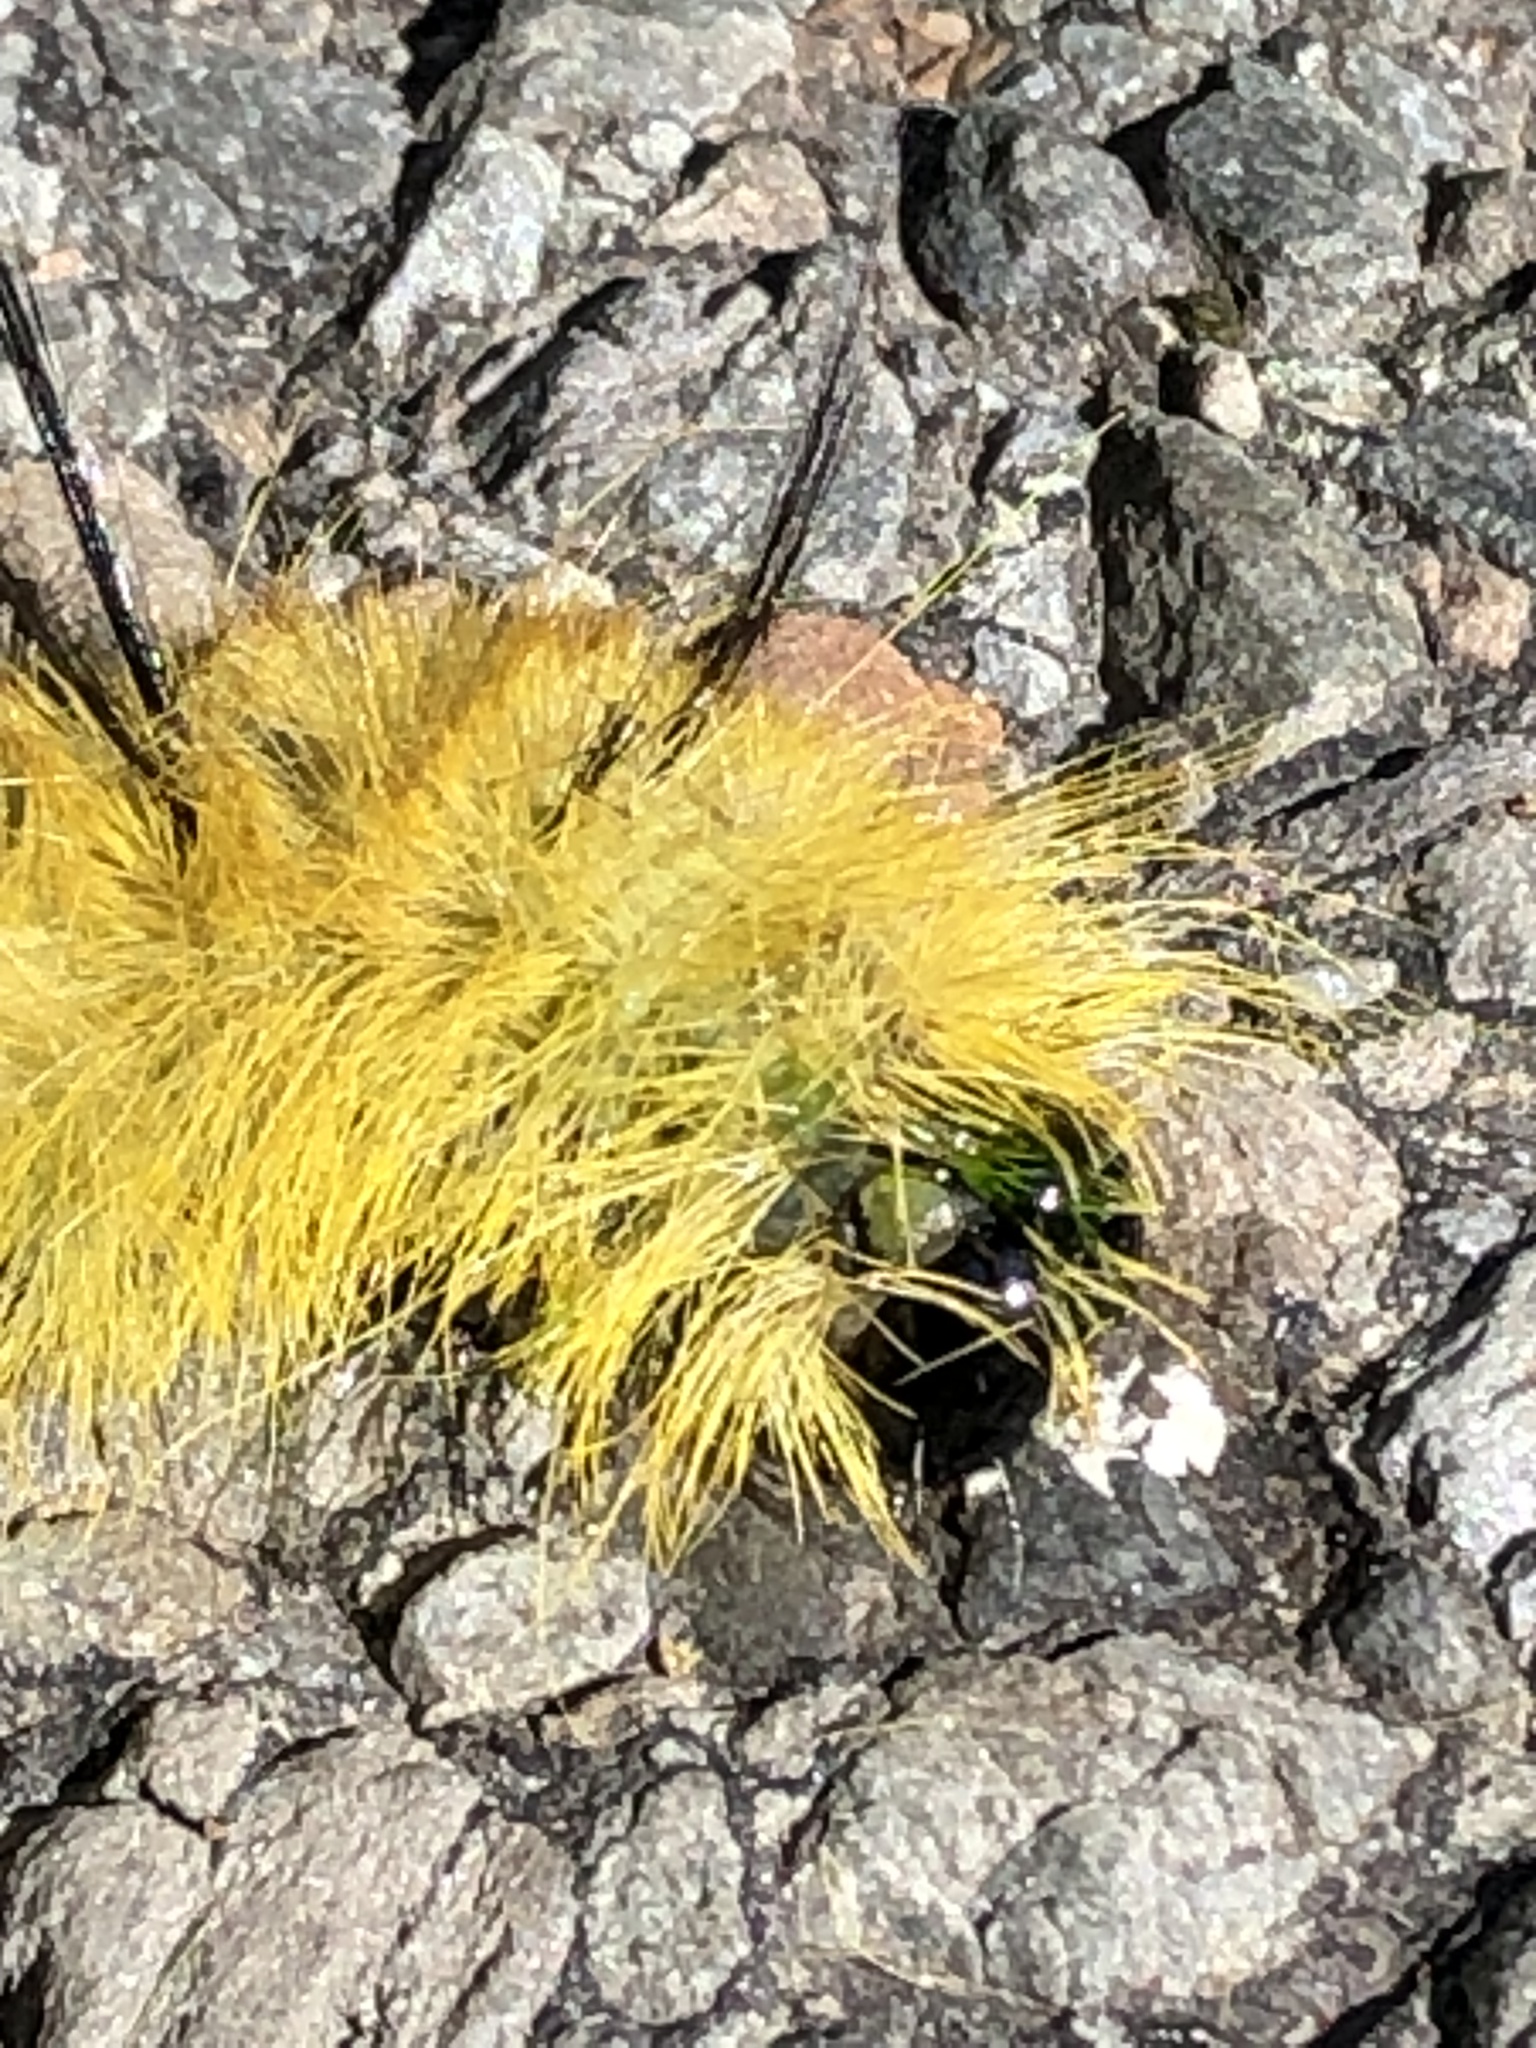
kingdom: Animalia
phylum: Arthropoda
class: Insecta
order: Lepidoptera
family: Noctuidae
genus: Acronicta
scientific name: Acronicta americana
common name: American dagger
